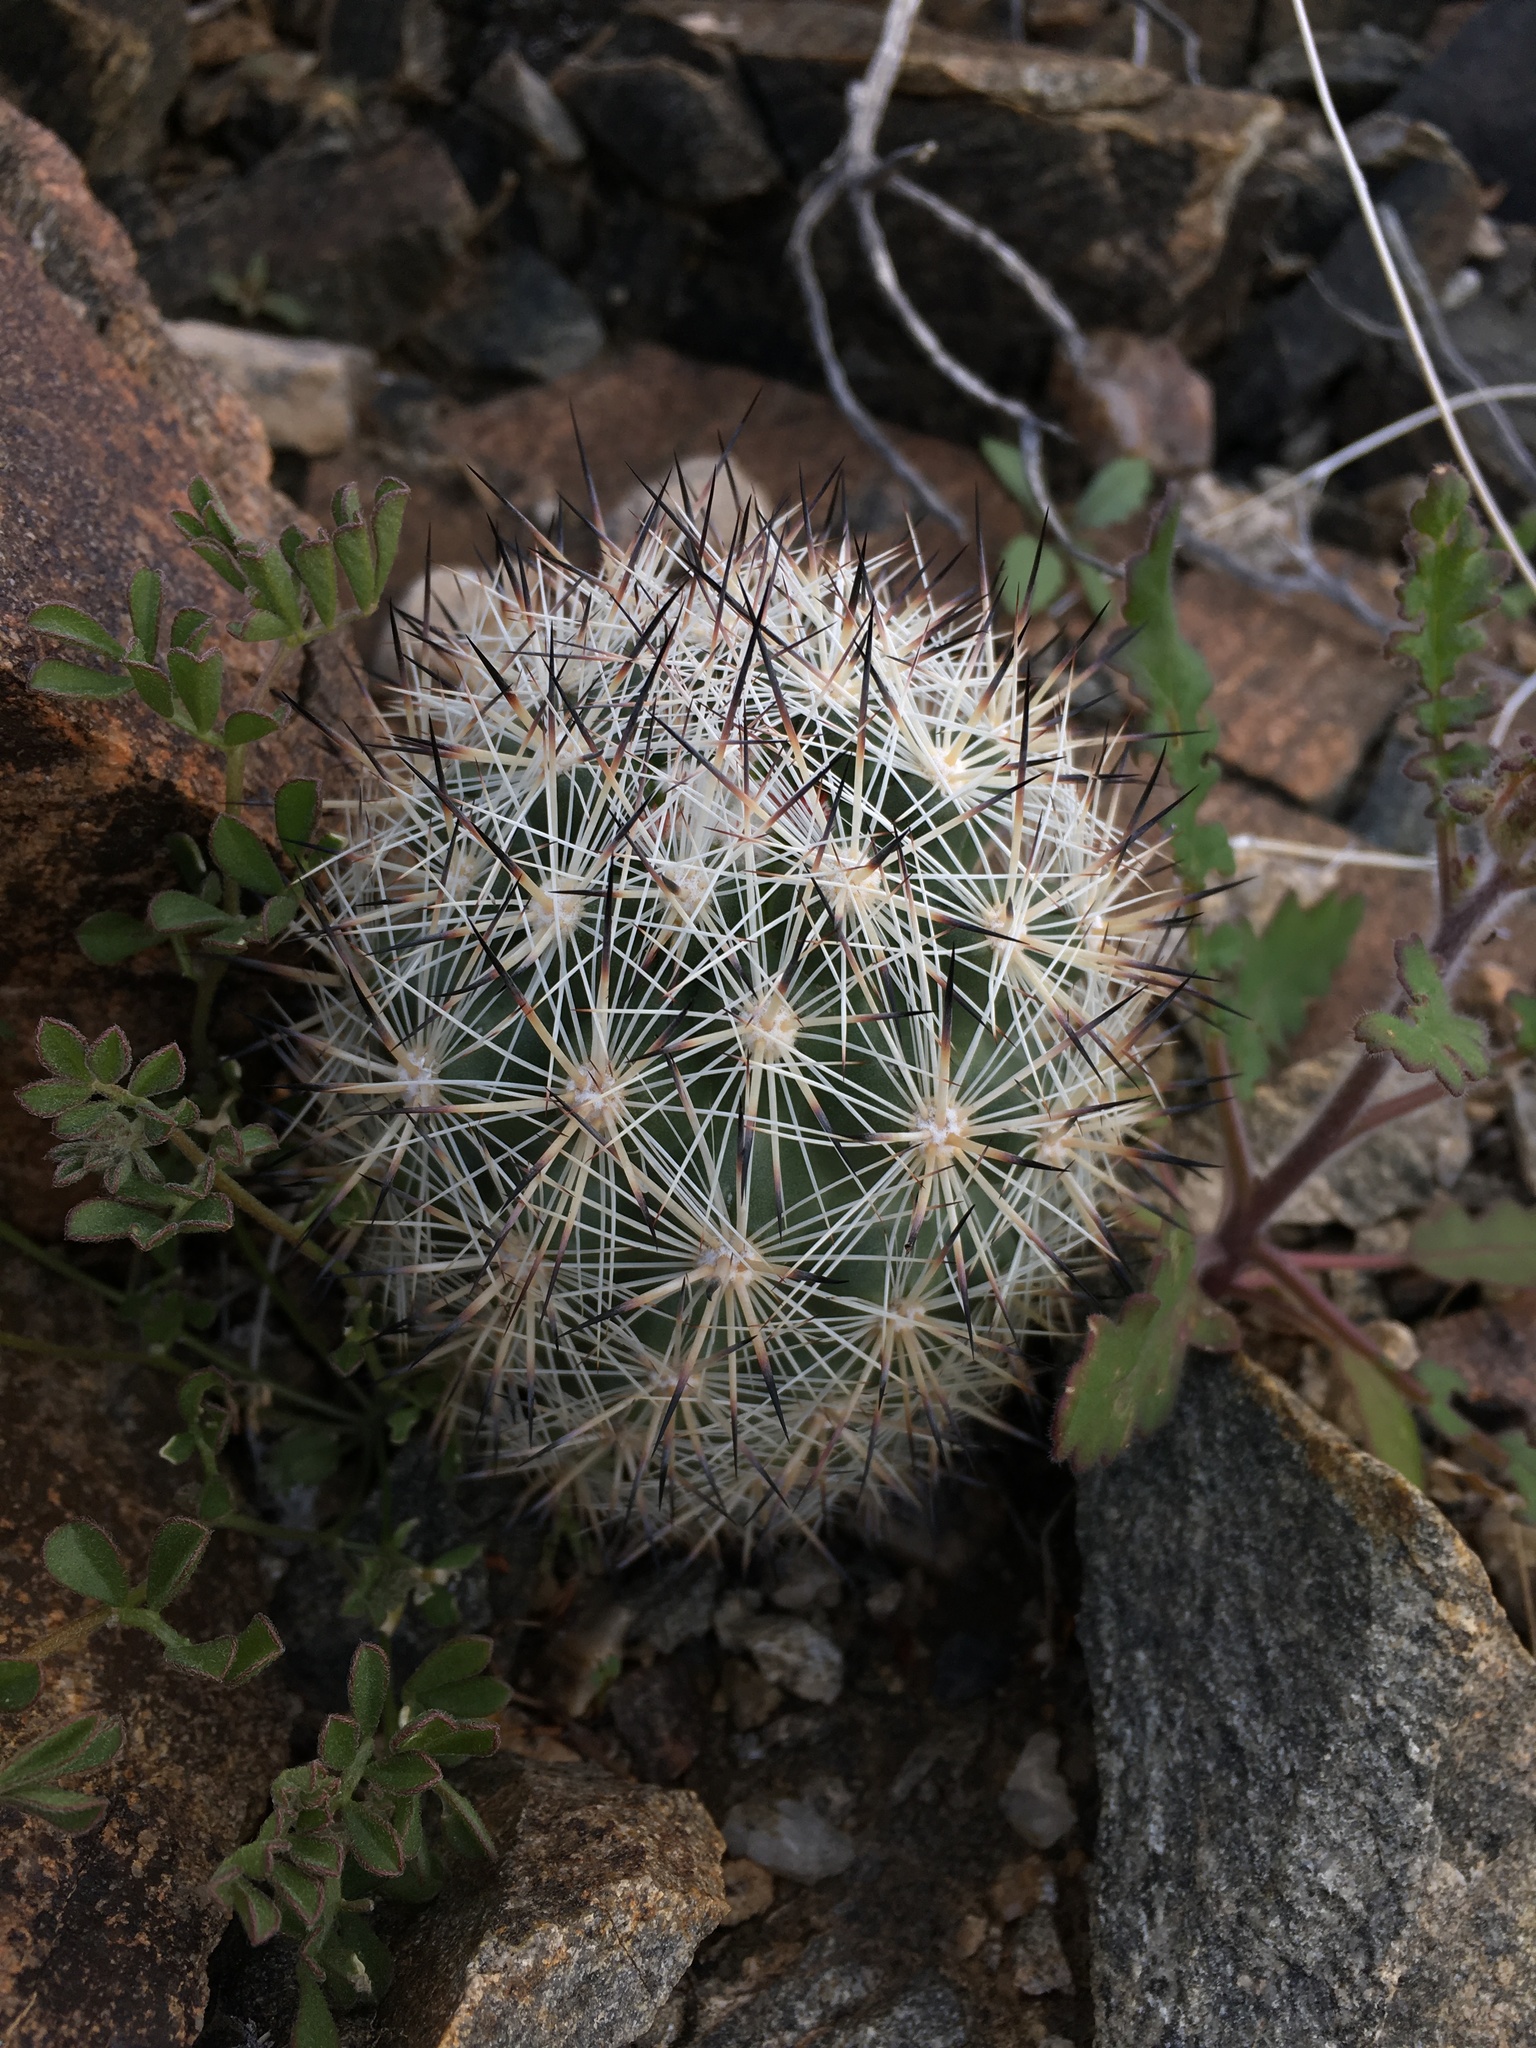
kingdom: Plantae
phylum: Tracheophyta
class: Magnoliopsida
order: Caryophyllales
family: Cactaceae
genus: Pelecyphora
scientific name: Pelecyphora alversonii
